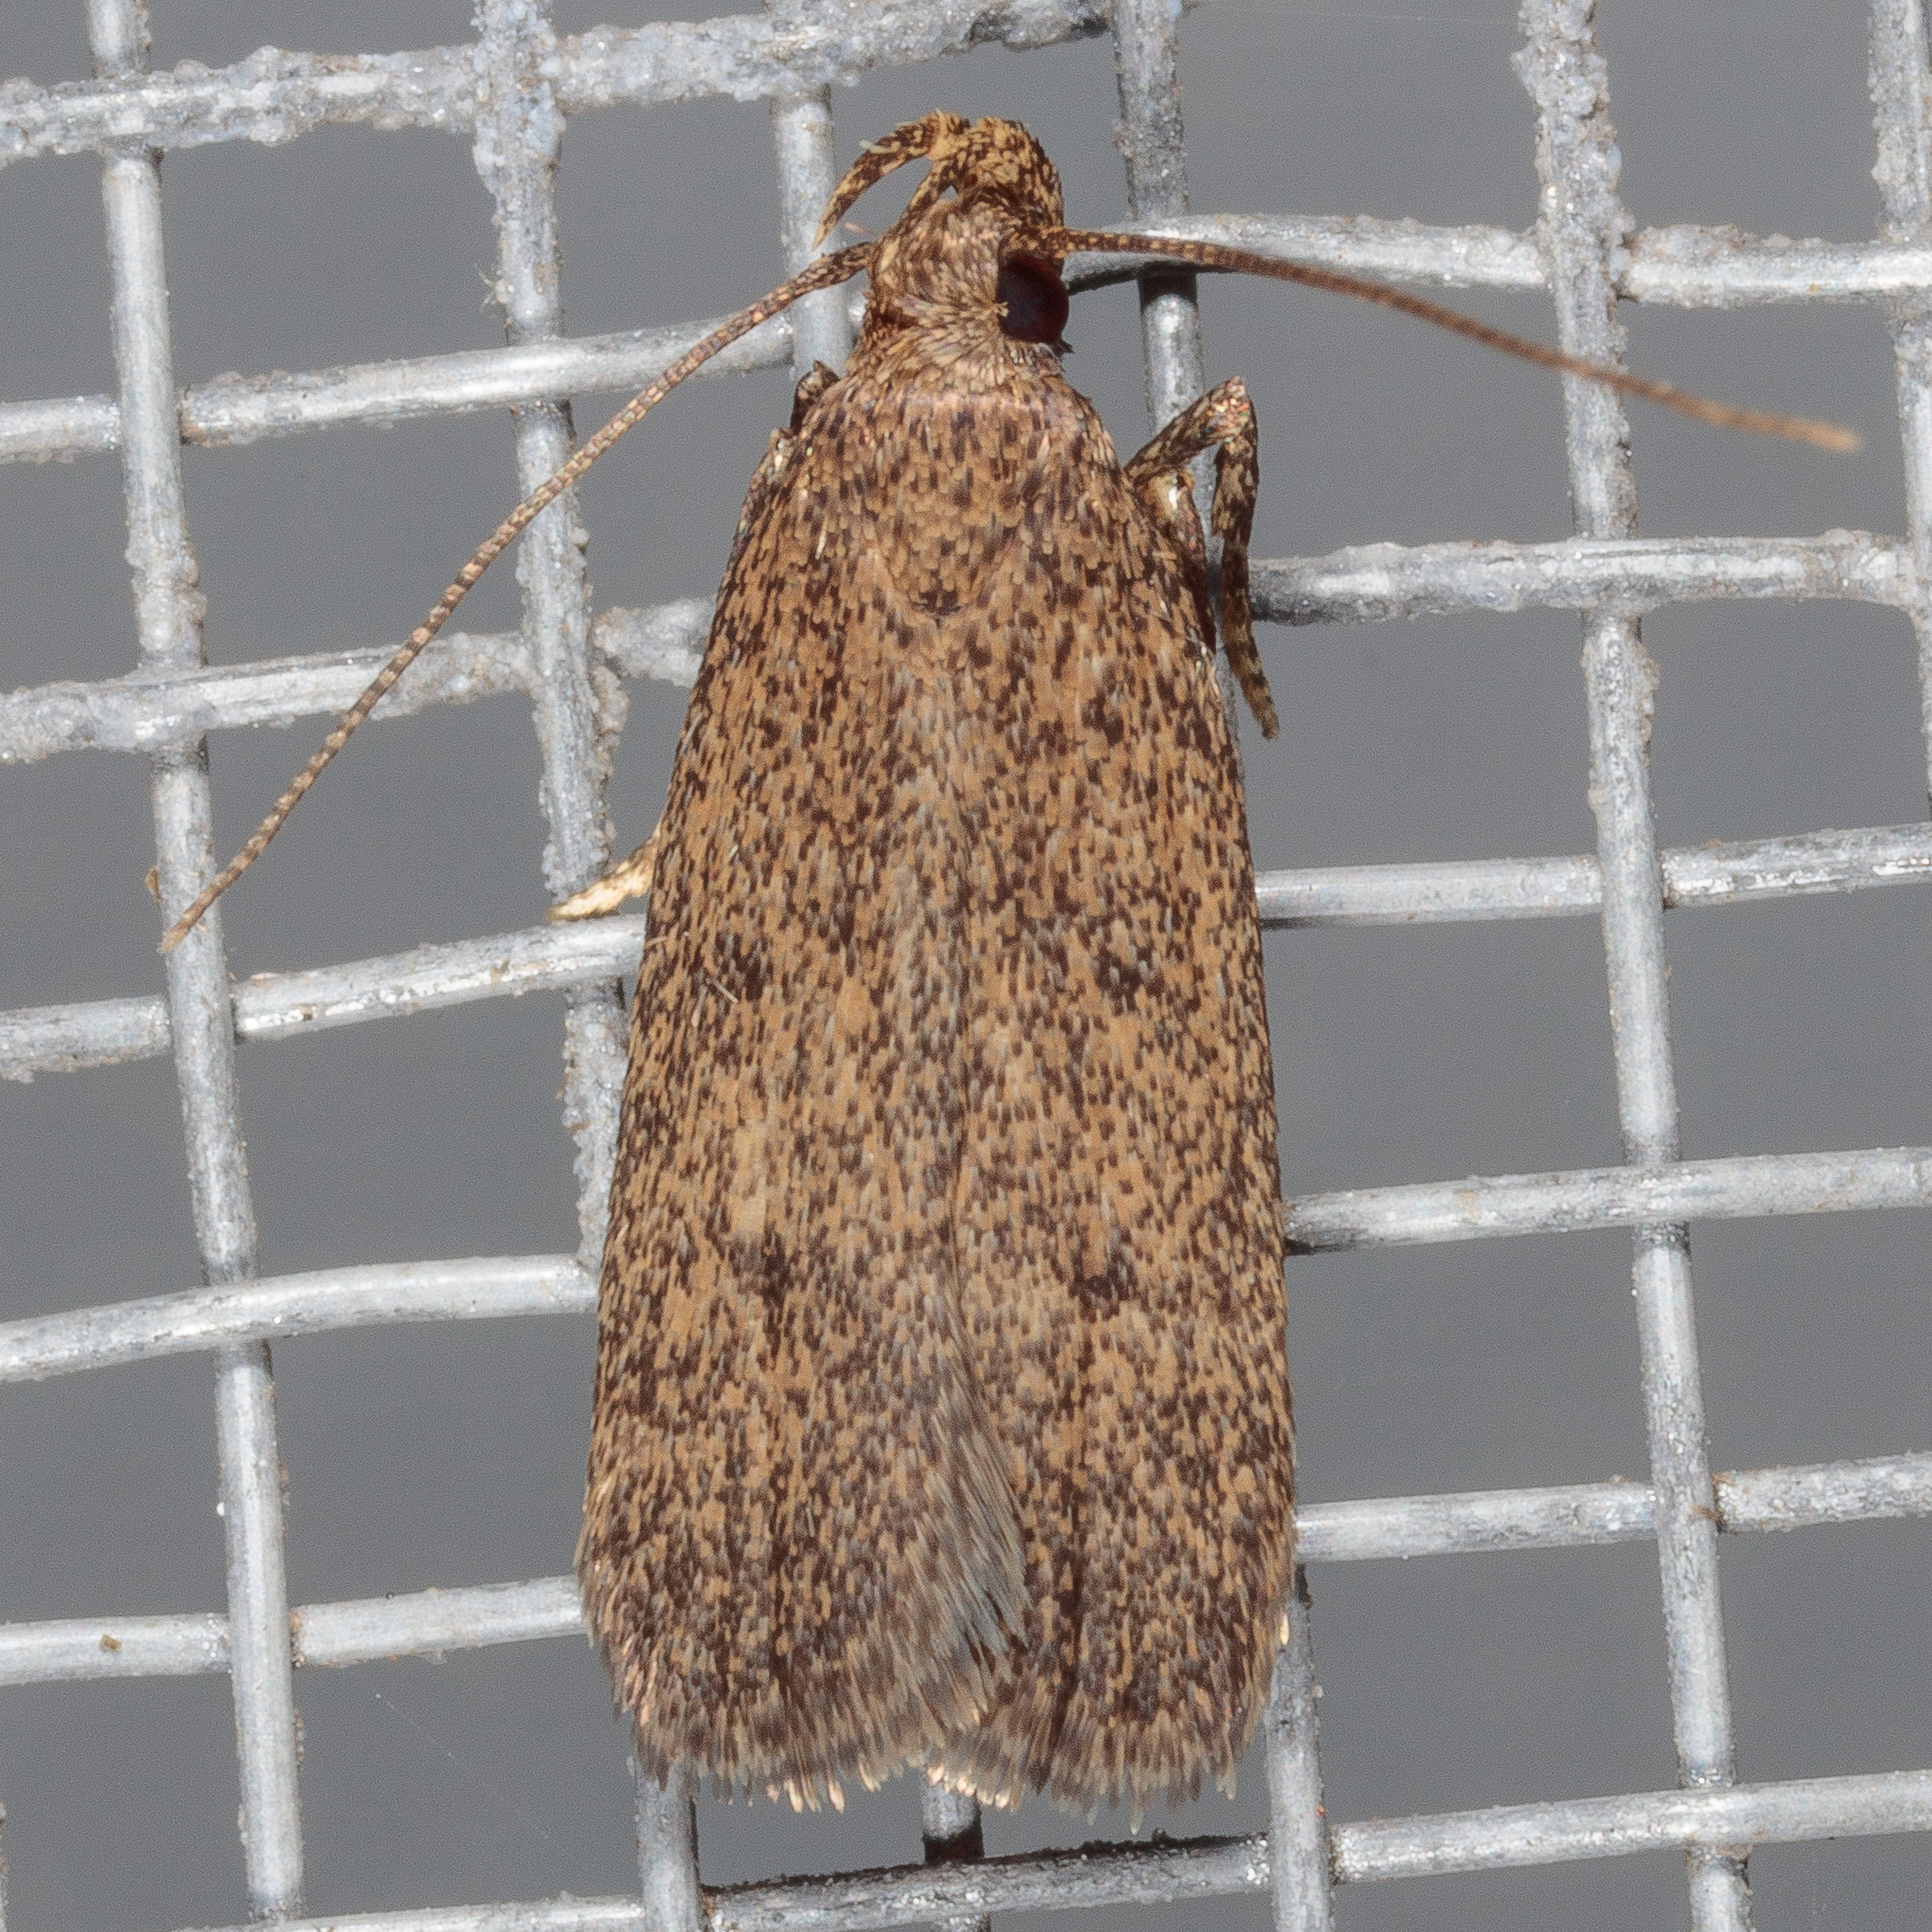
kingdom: Animalia
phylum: Arthropoda
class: Insecta
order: Lepidoptera
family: Autostichidae
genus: Glyphidocera
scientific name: Glyphidocera juniperella
